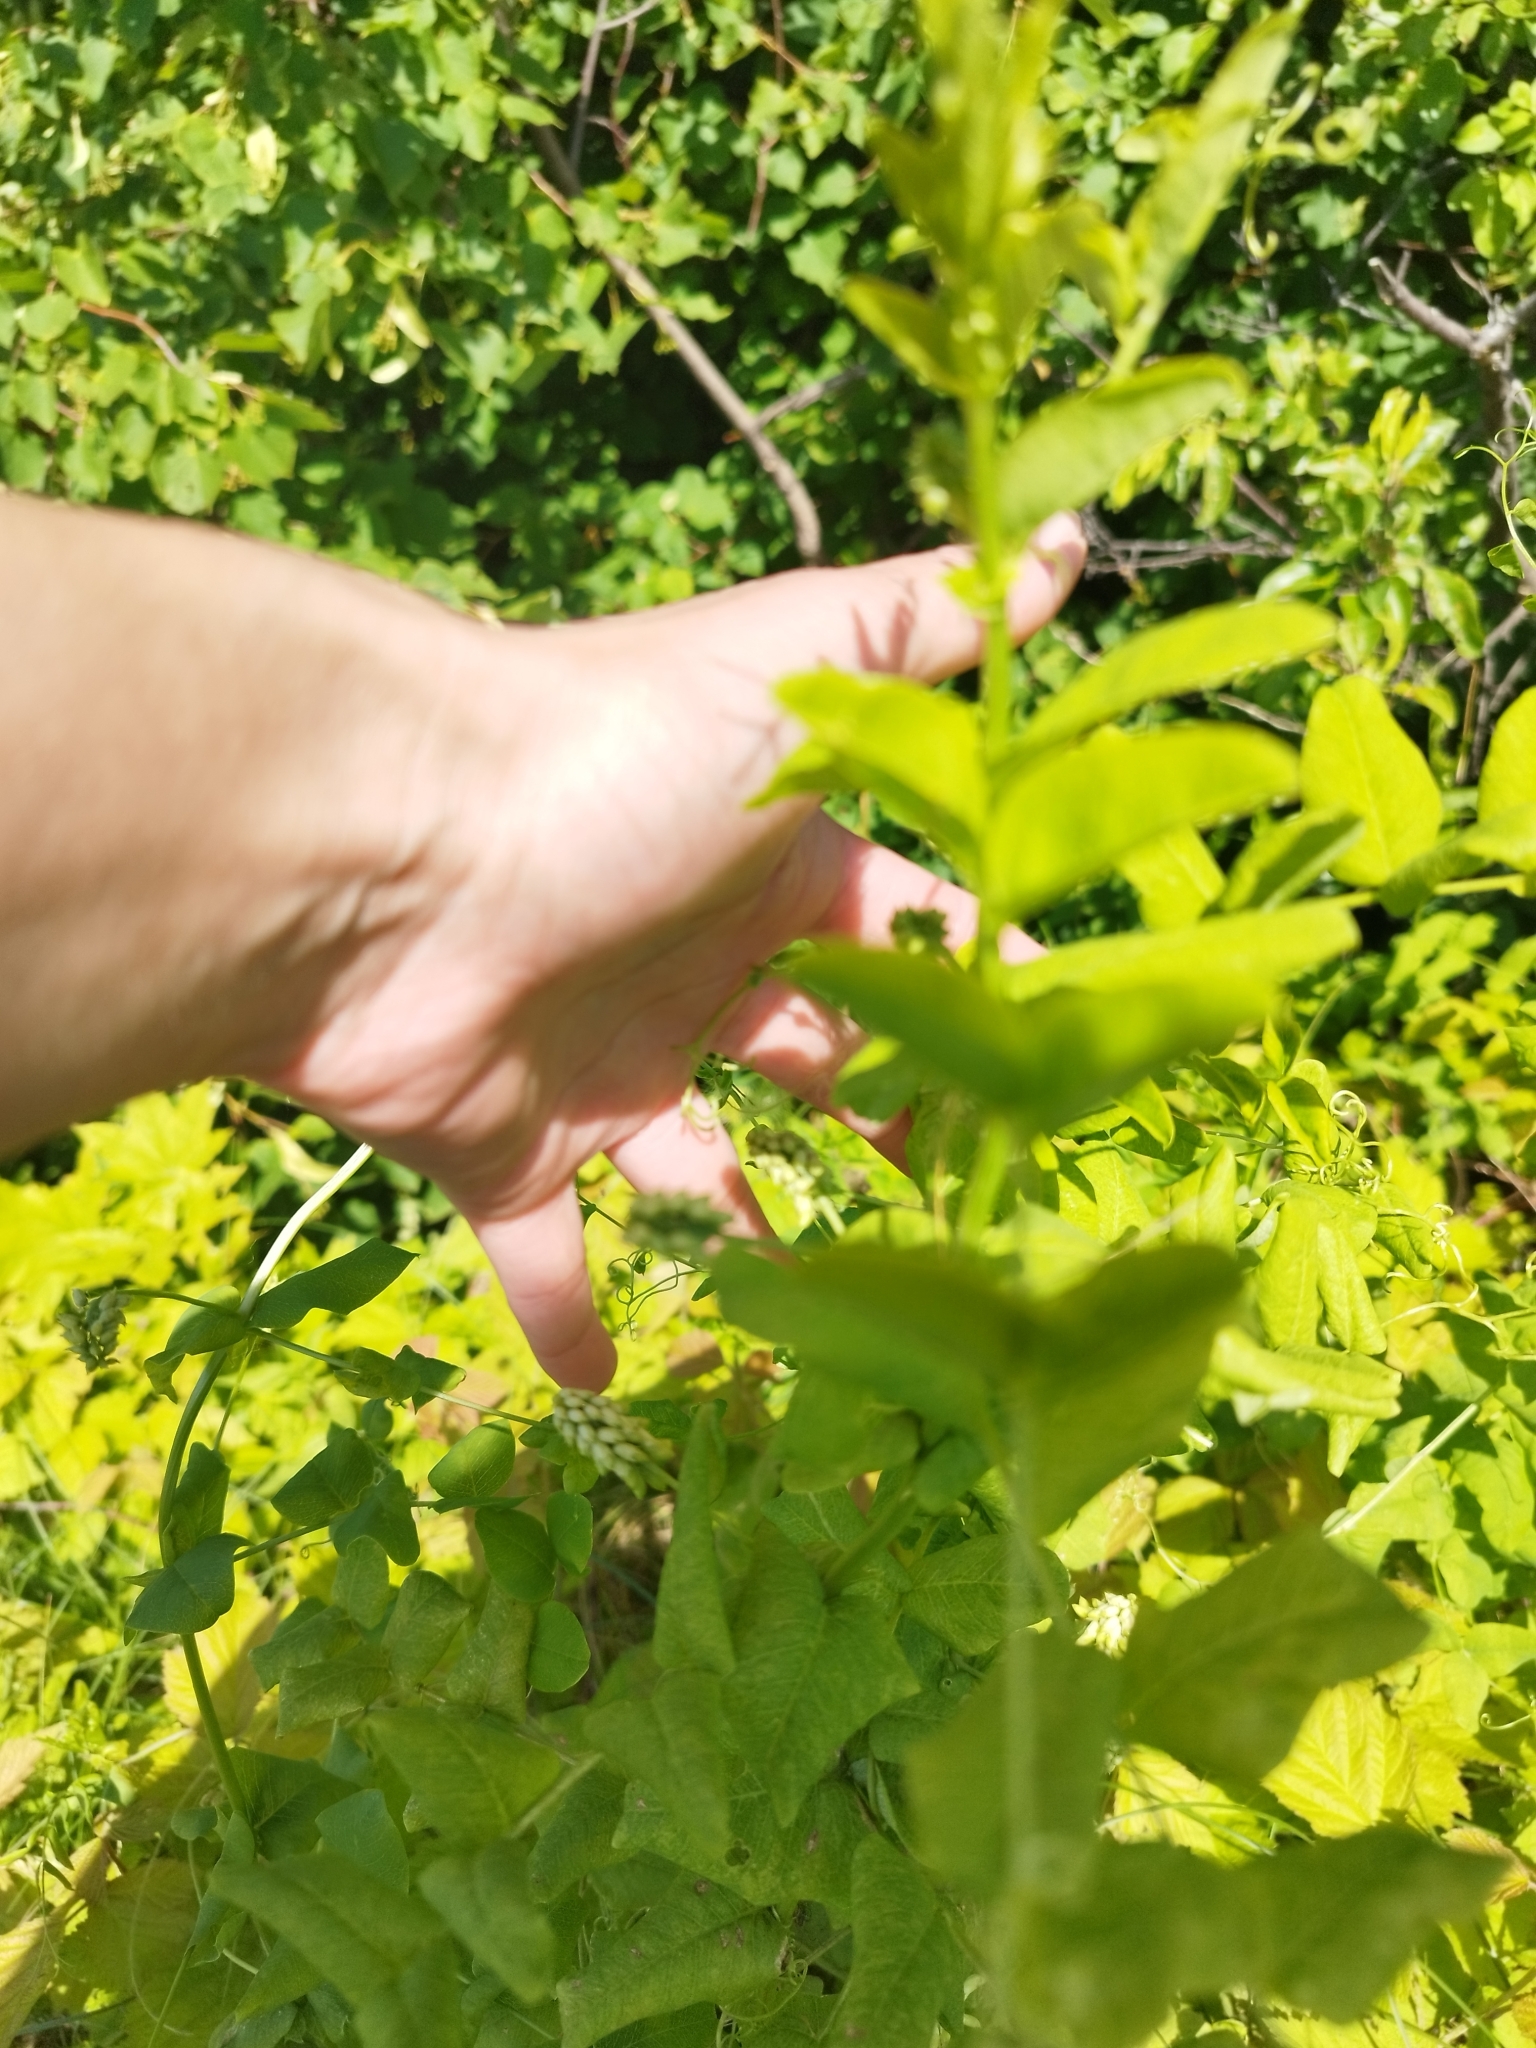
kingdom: Plantae
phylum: Tracheophyta
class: Magnoliopsida
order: Fabales
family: Fabaceae
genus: Vicia
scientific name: Vicia pisiformis
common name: Pale-flower vetch
